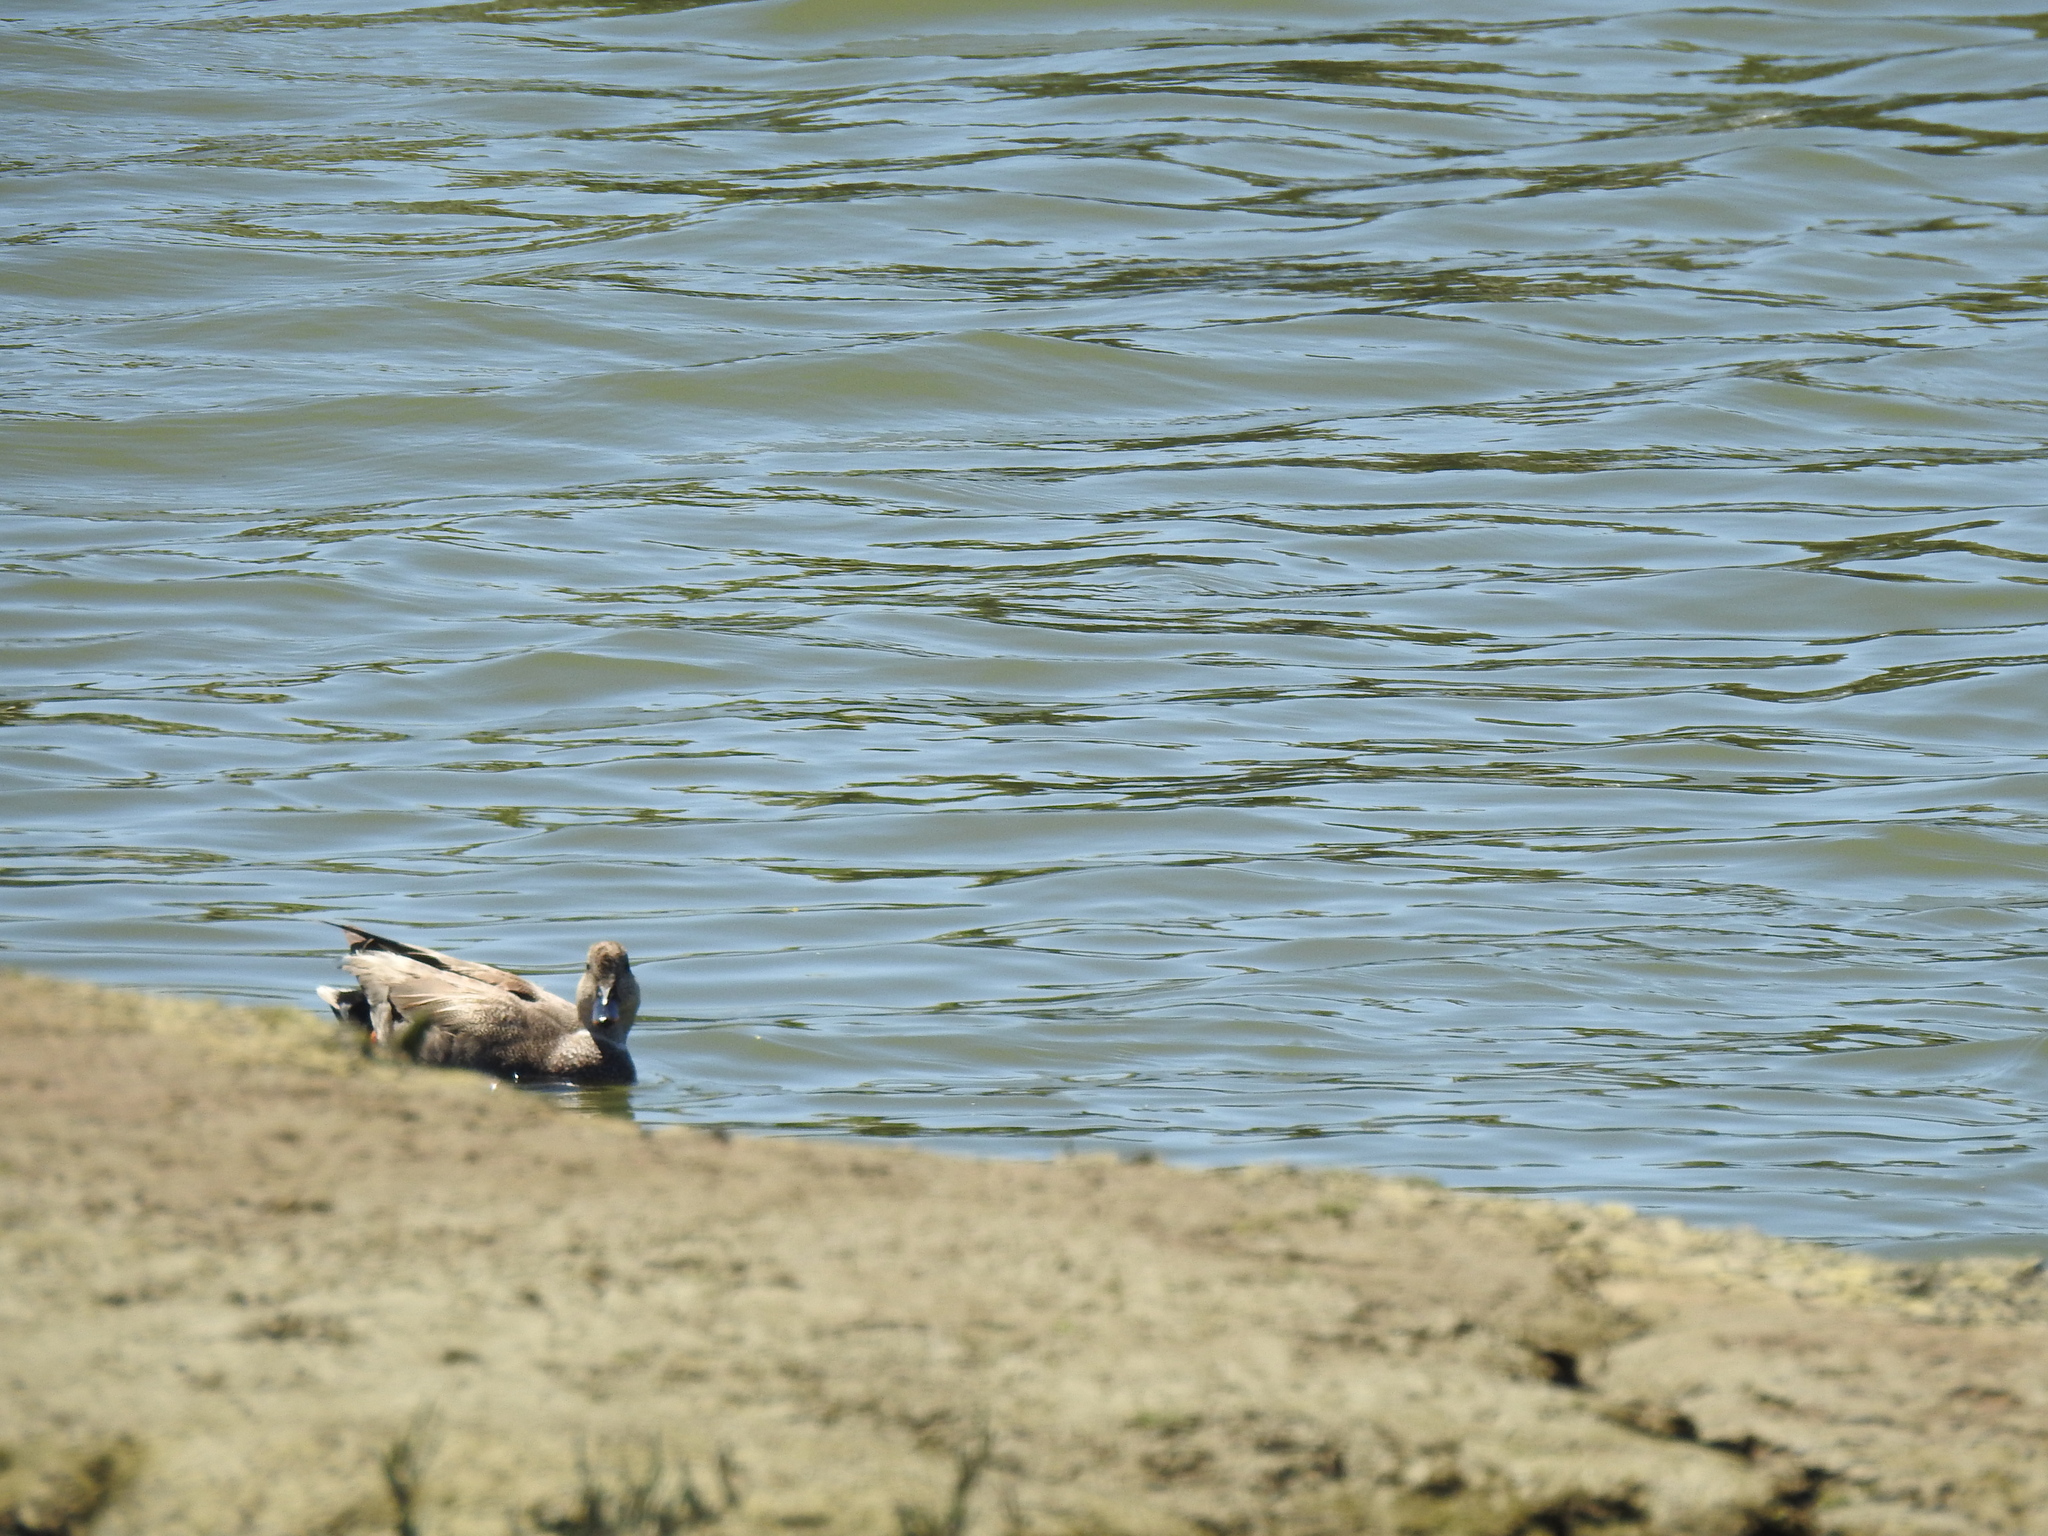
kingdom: Animalia
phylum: Chordata
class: Aves
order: Anseriformes
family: Anatidae
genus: Mareca
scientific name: Mareca strepera
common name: Gadwall
